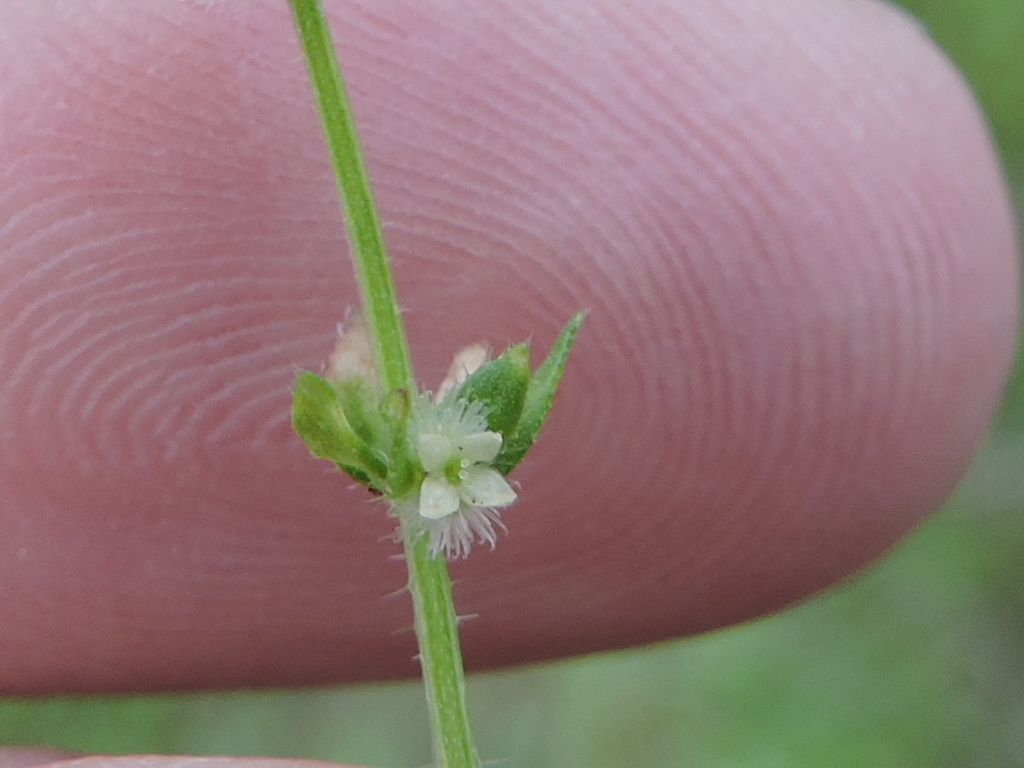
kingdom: Plantae
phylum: Tracheophyta
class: Magnoliopsida
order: Gentianales
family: Rubiaceae
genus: Galium
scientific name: Galium virgatum
